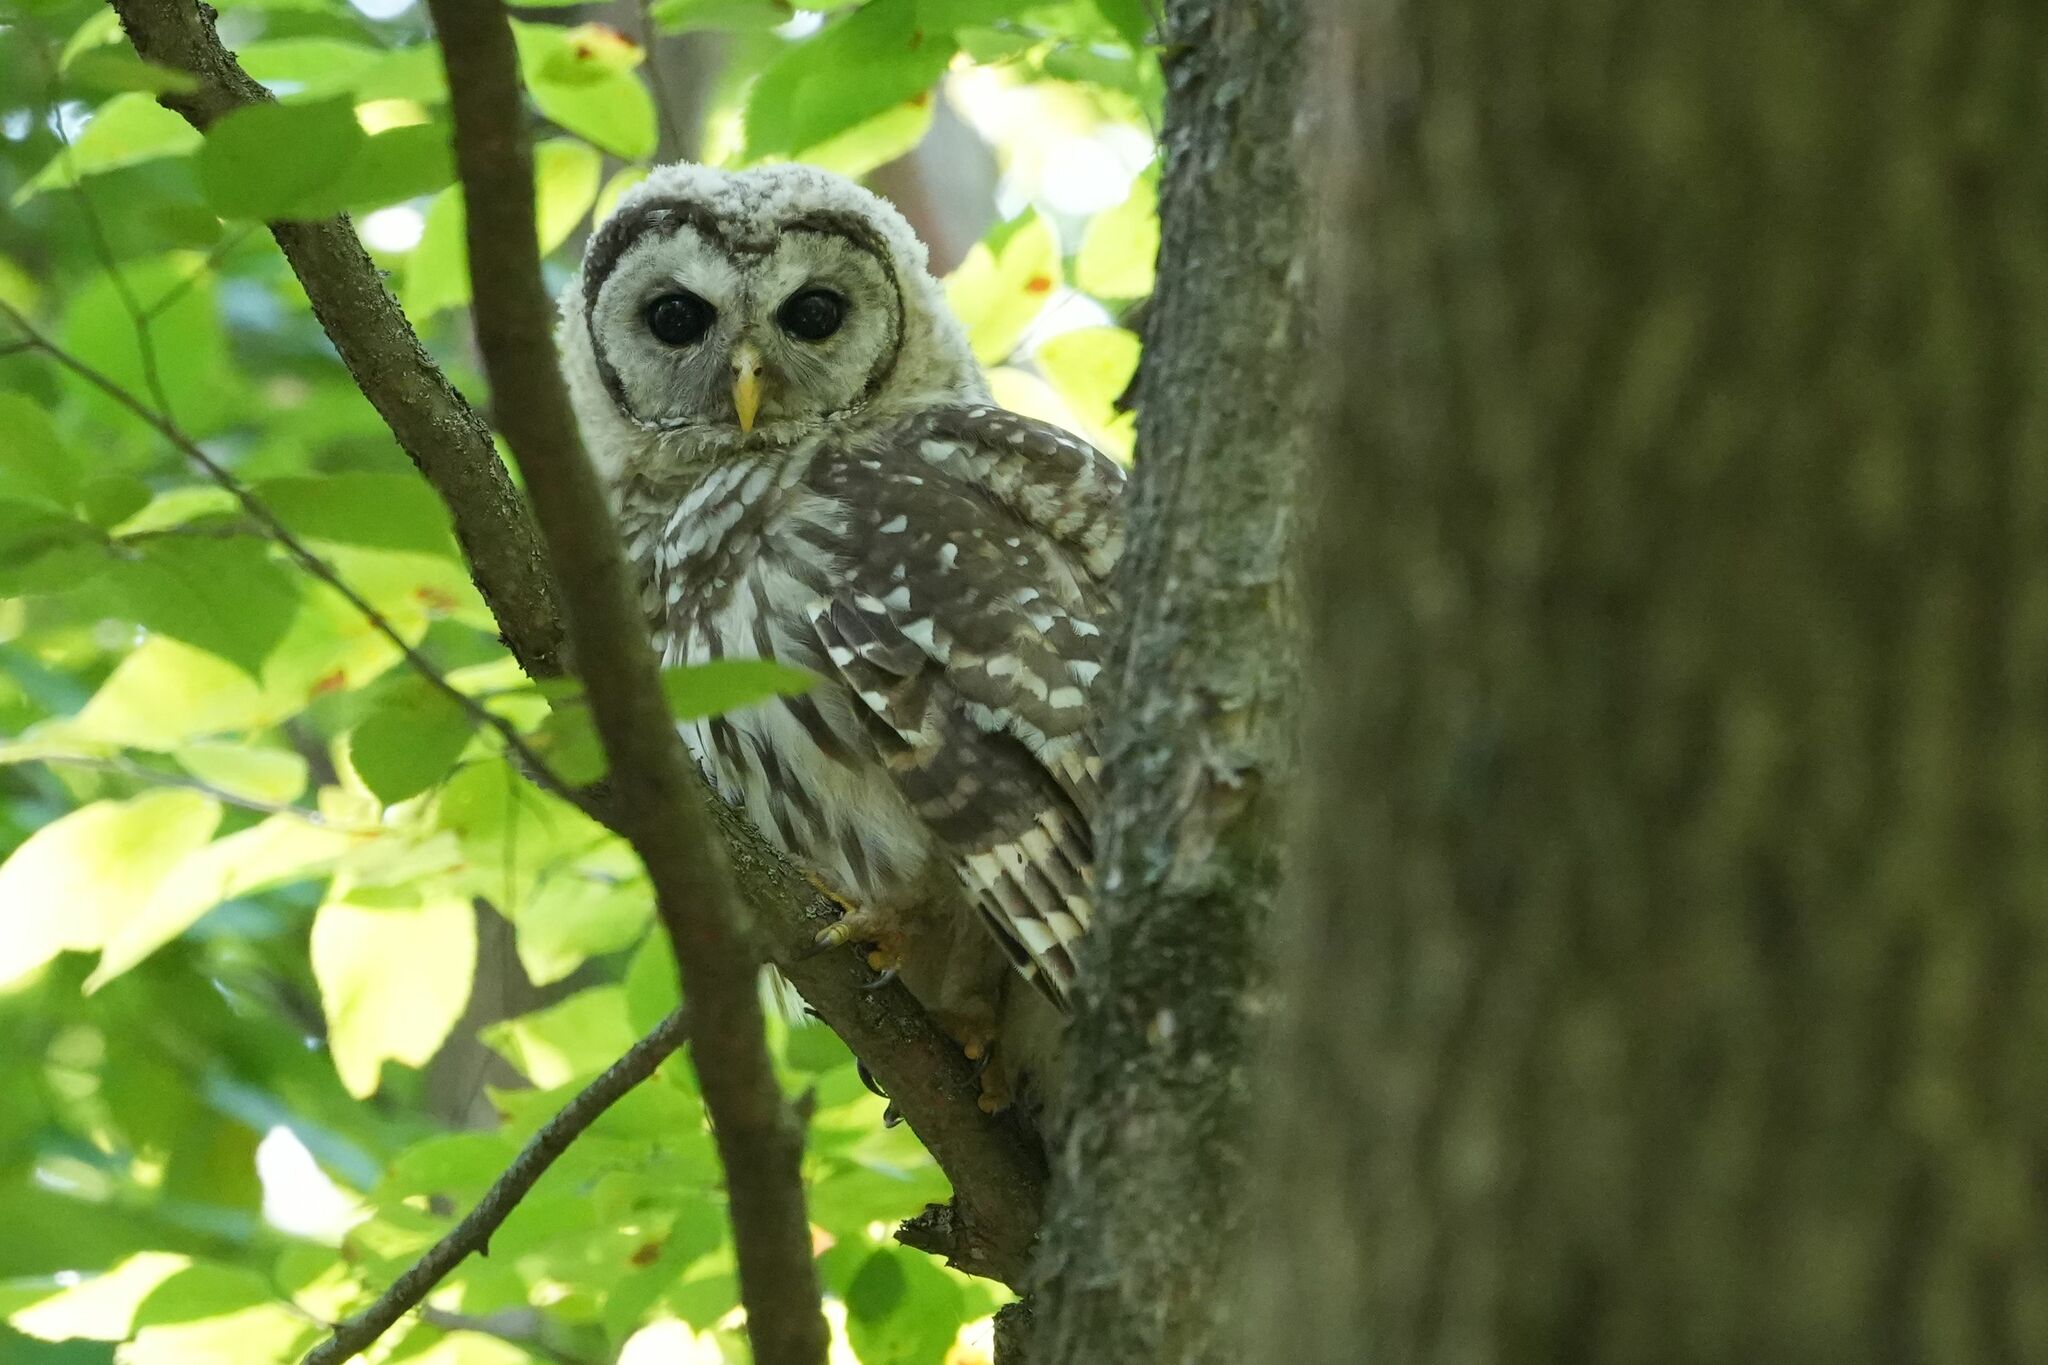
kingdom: Animalia
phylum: Chordata
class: Aves
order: Strigiformes
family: Strigidae
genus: Strix
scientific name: Strix varia
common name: Barred owl
